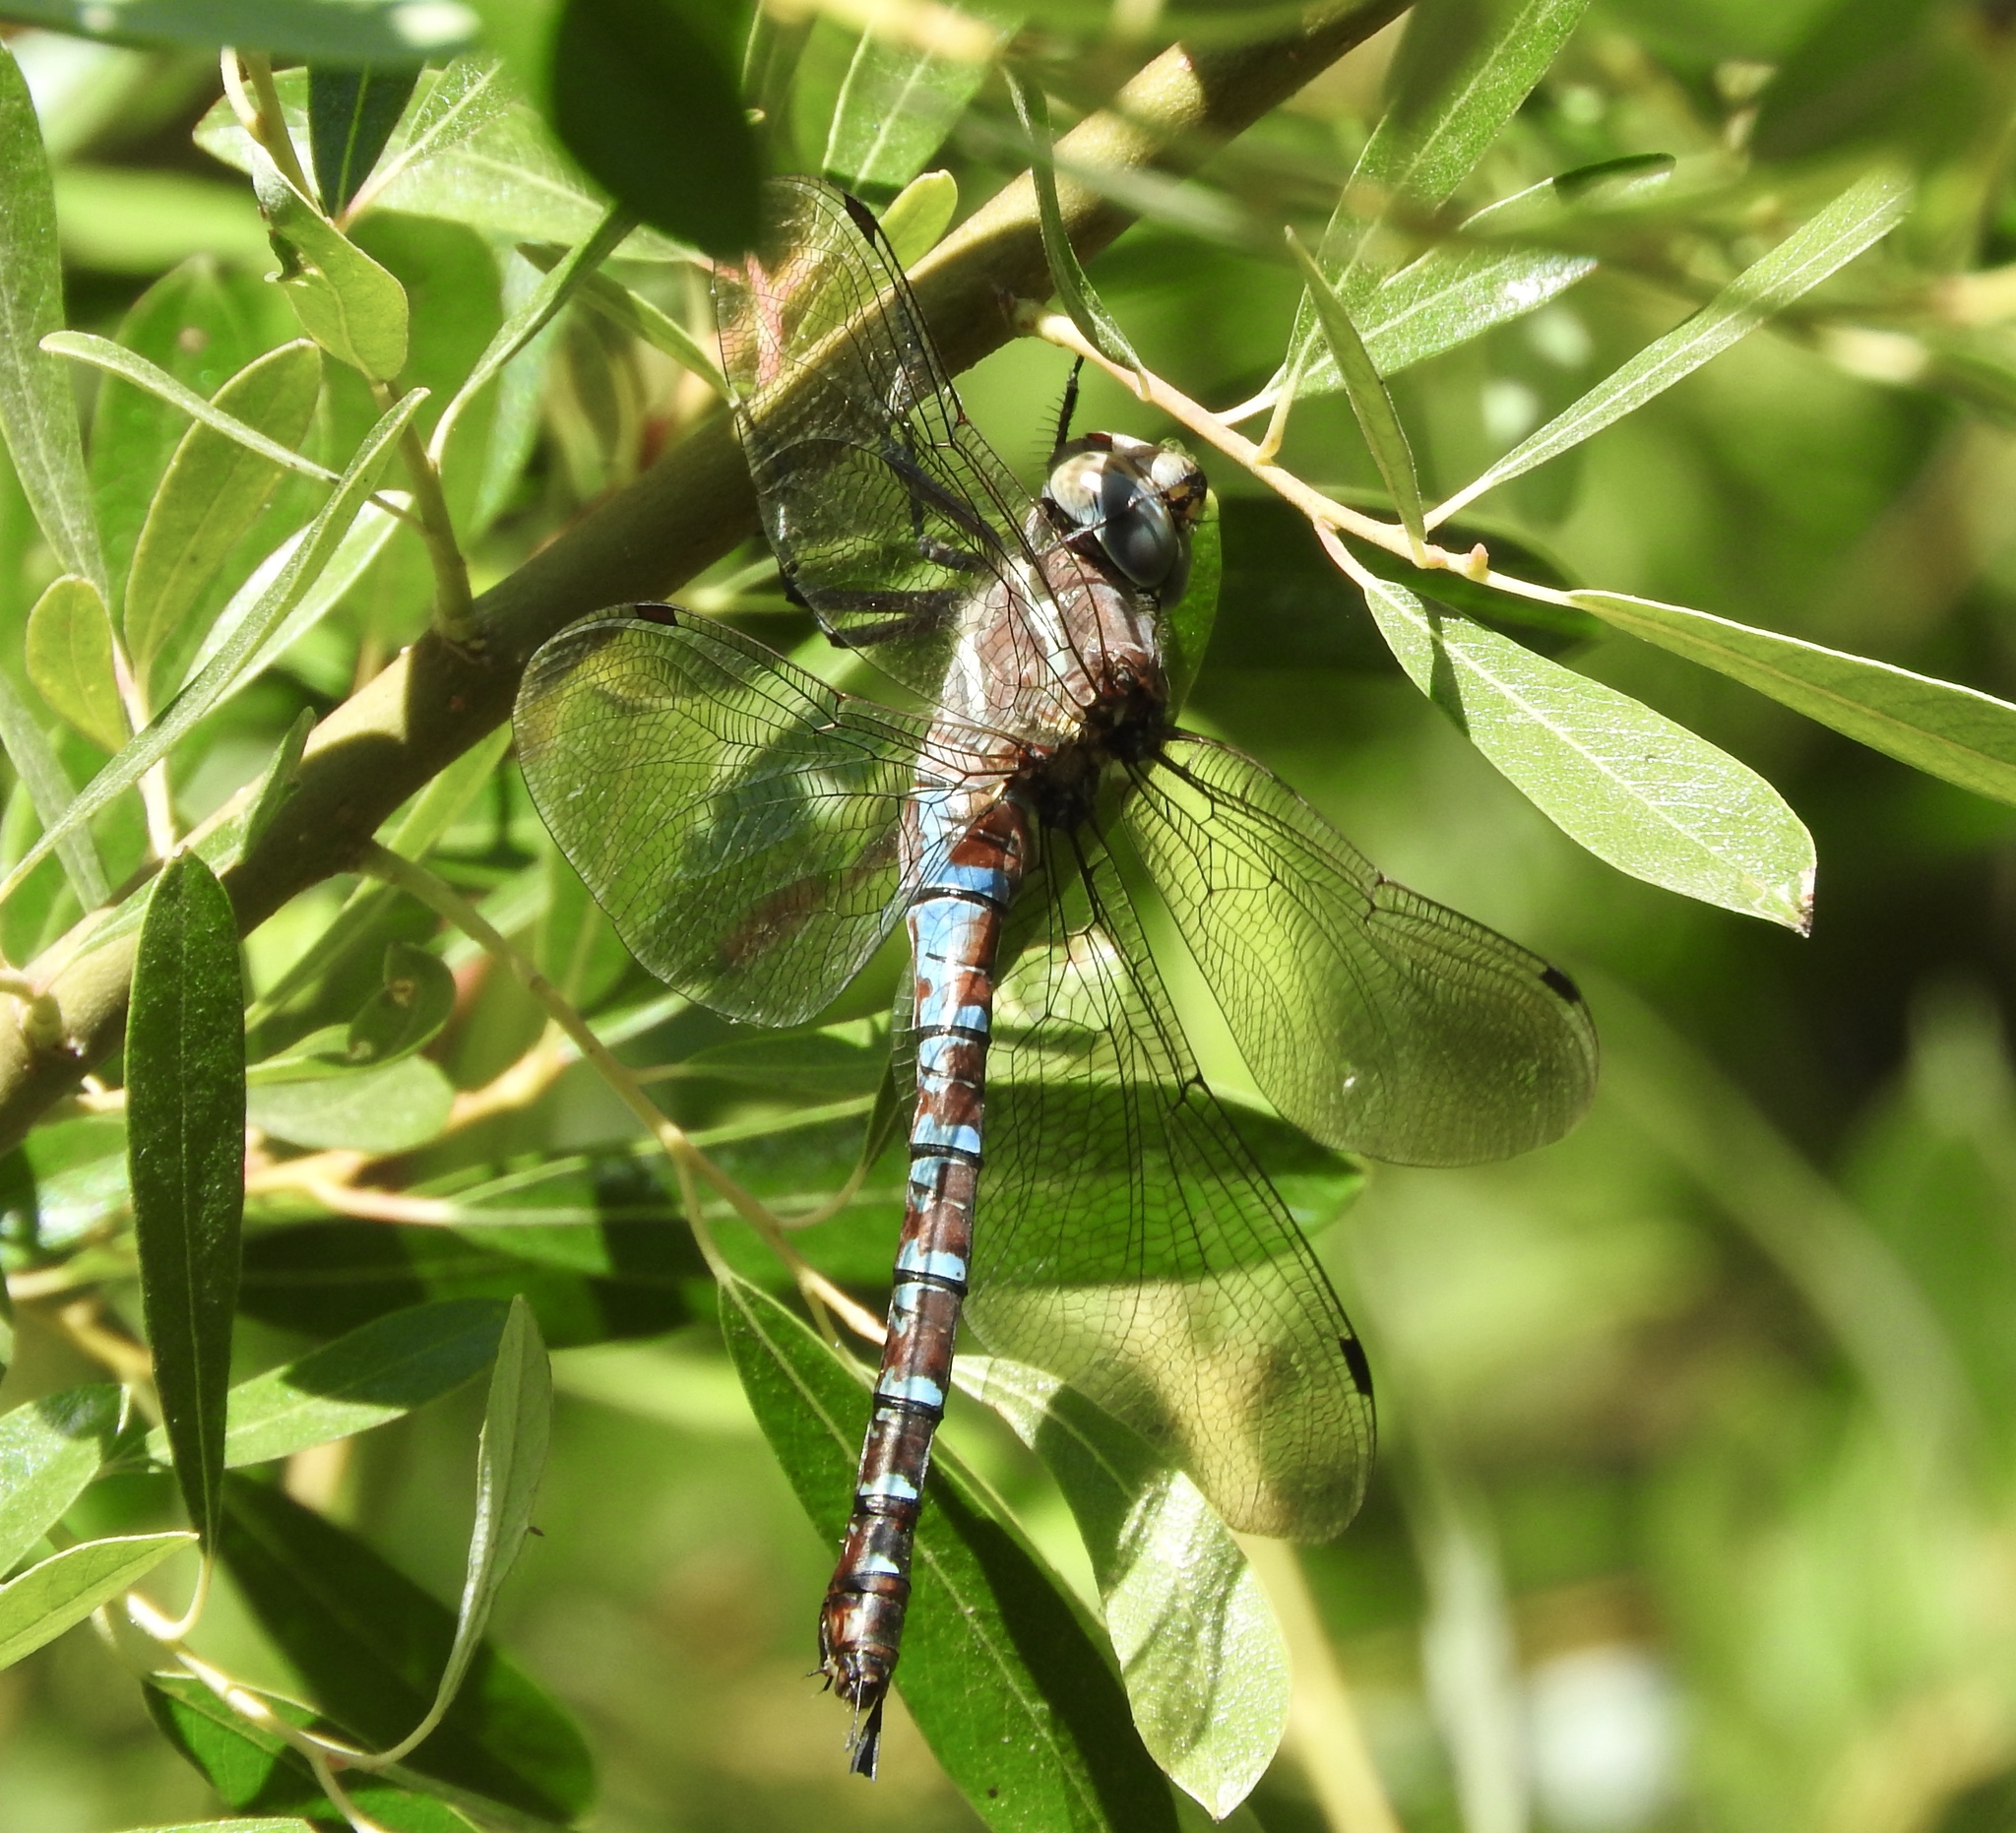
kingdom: Animalia
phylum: Arthropoda
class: Insecta
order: Odonata
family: Aeshnidae
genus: Aeshna
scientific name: Aeshna walkeri
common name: Walker's darner
